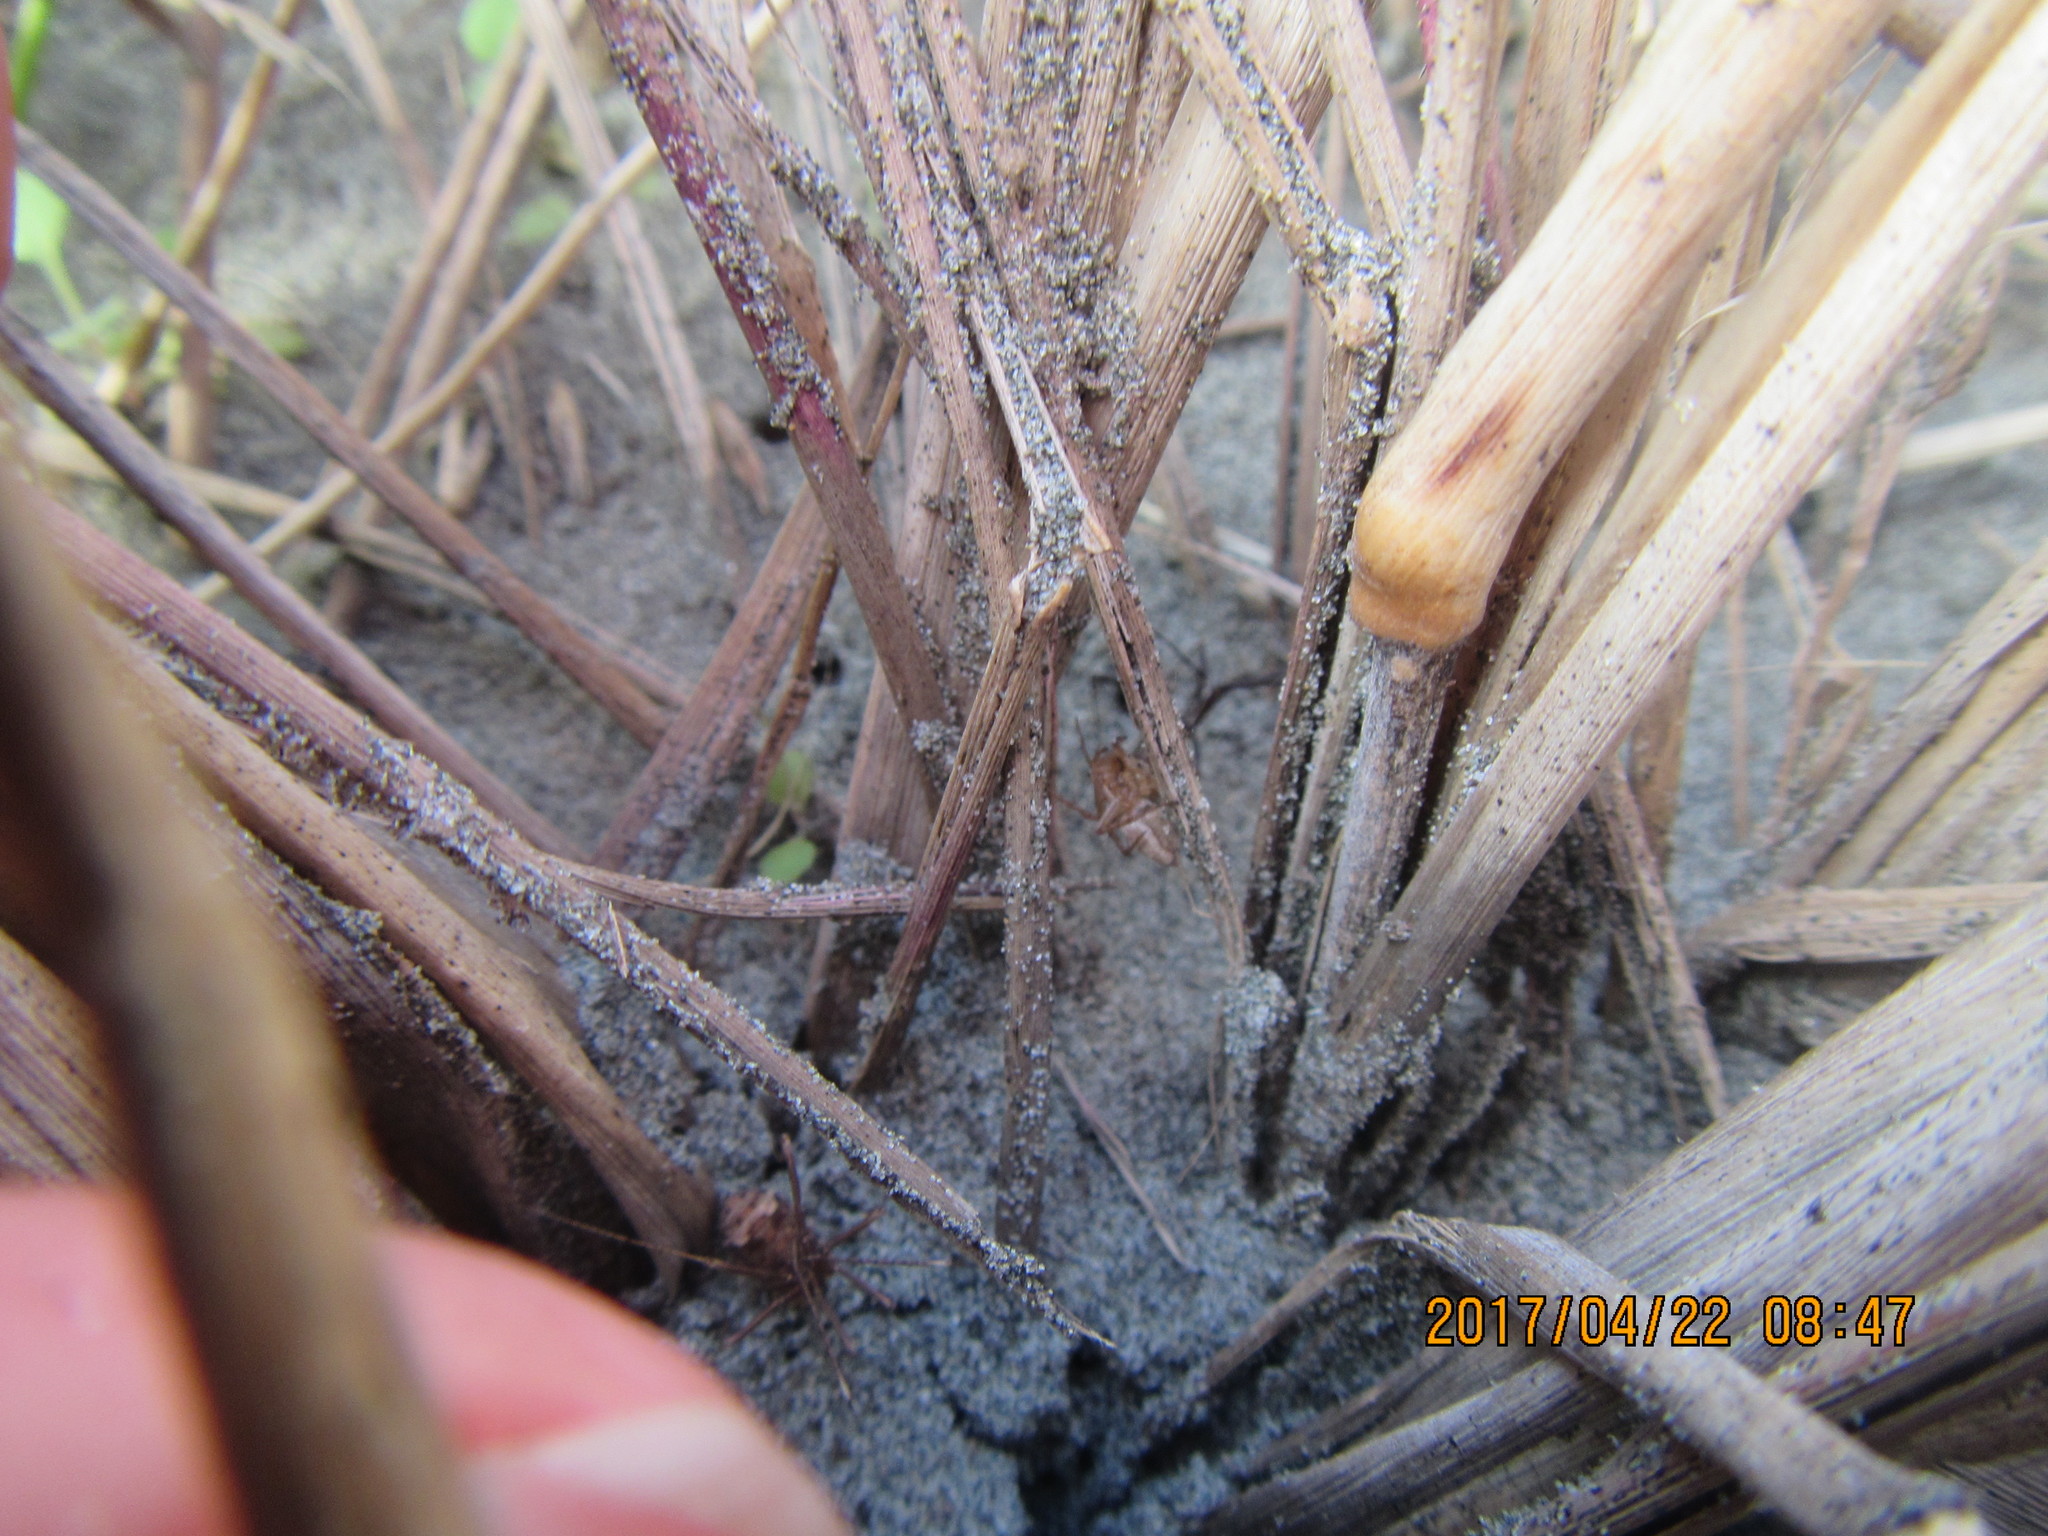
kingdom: Animalia
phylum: Arthropoda
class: Arachnida
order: Araneae
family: Oxyopidae
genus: Oxyopes
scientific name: Oxyopes gracilipes
